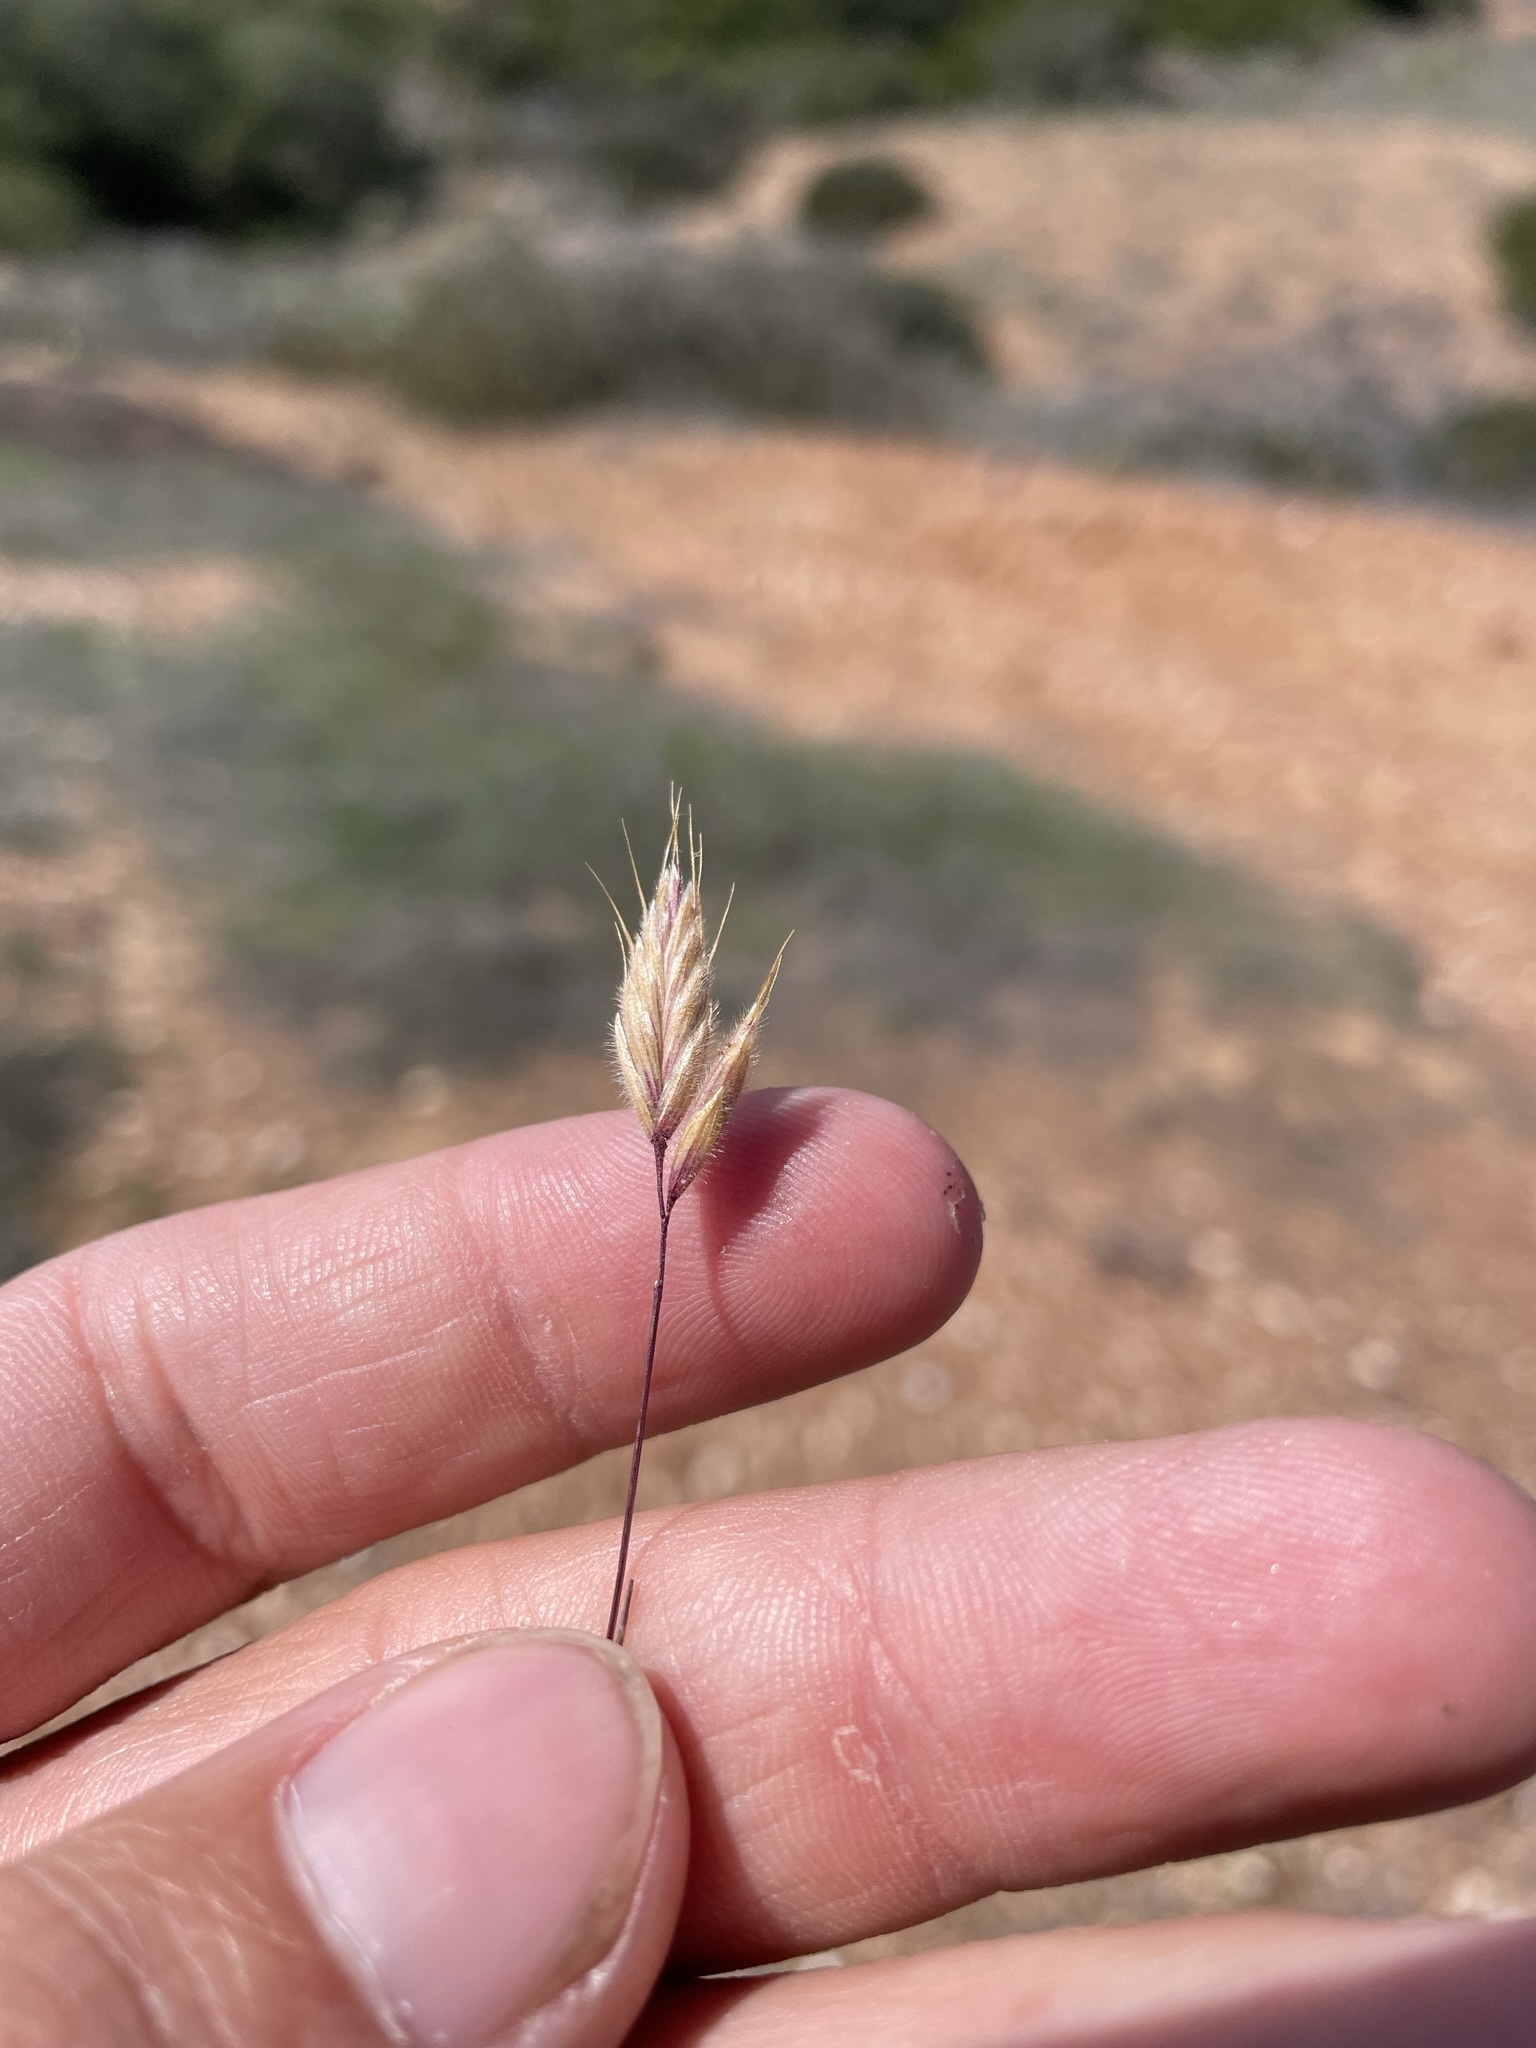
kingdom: Plantae
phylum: Tracheophyta
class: Liliopsida
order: Poales
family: Poaceae
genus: Bromus
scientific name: Bromus hordeaceus
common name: Soft brome
